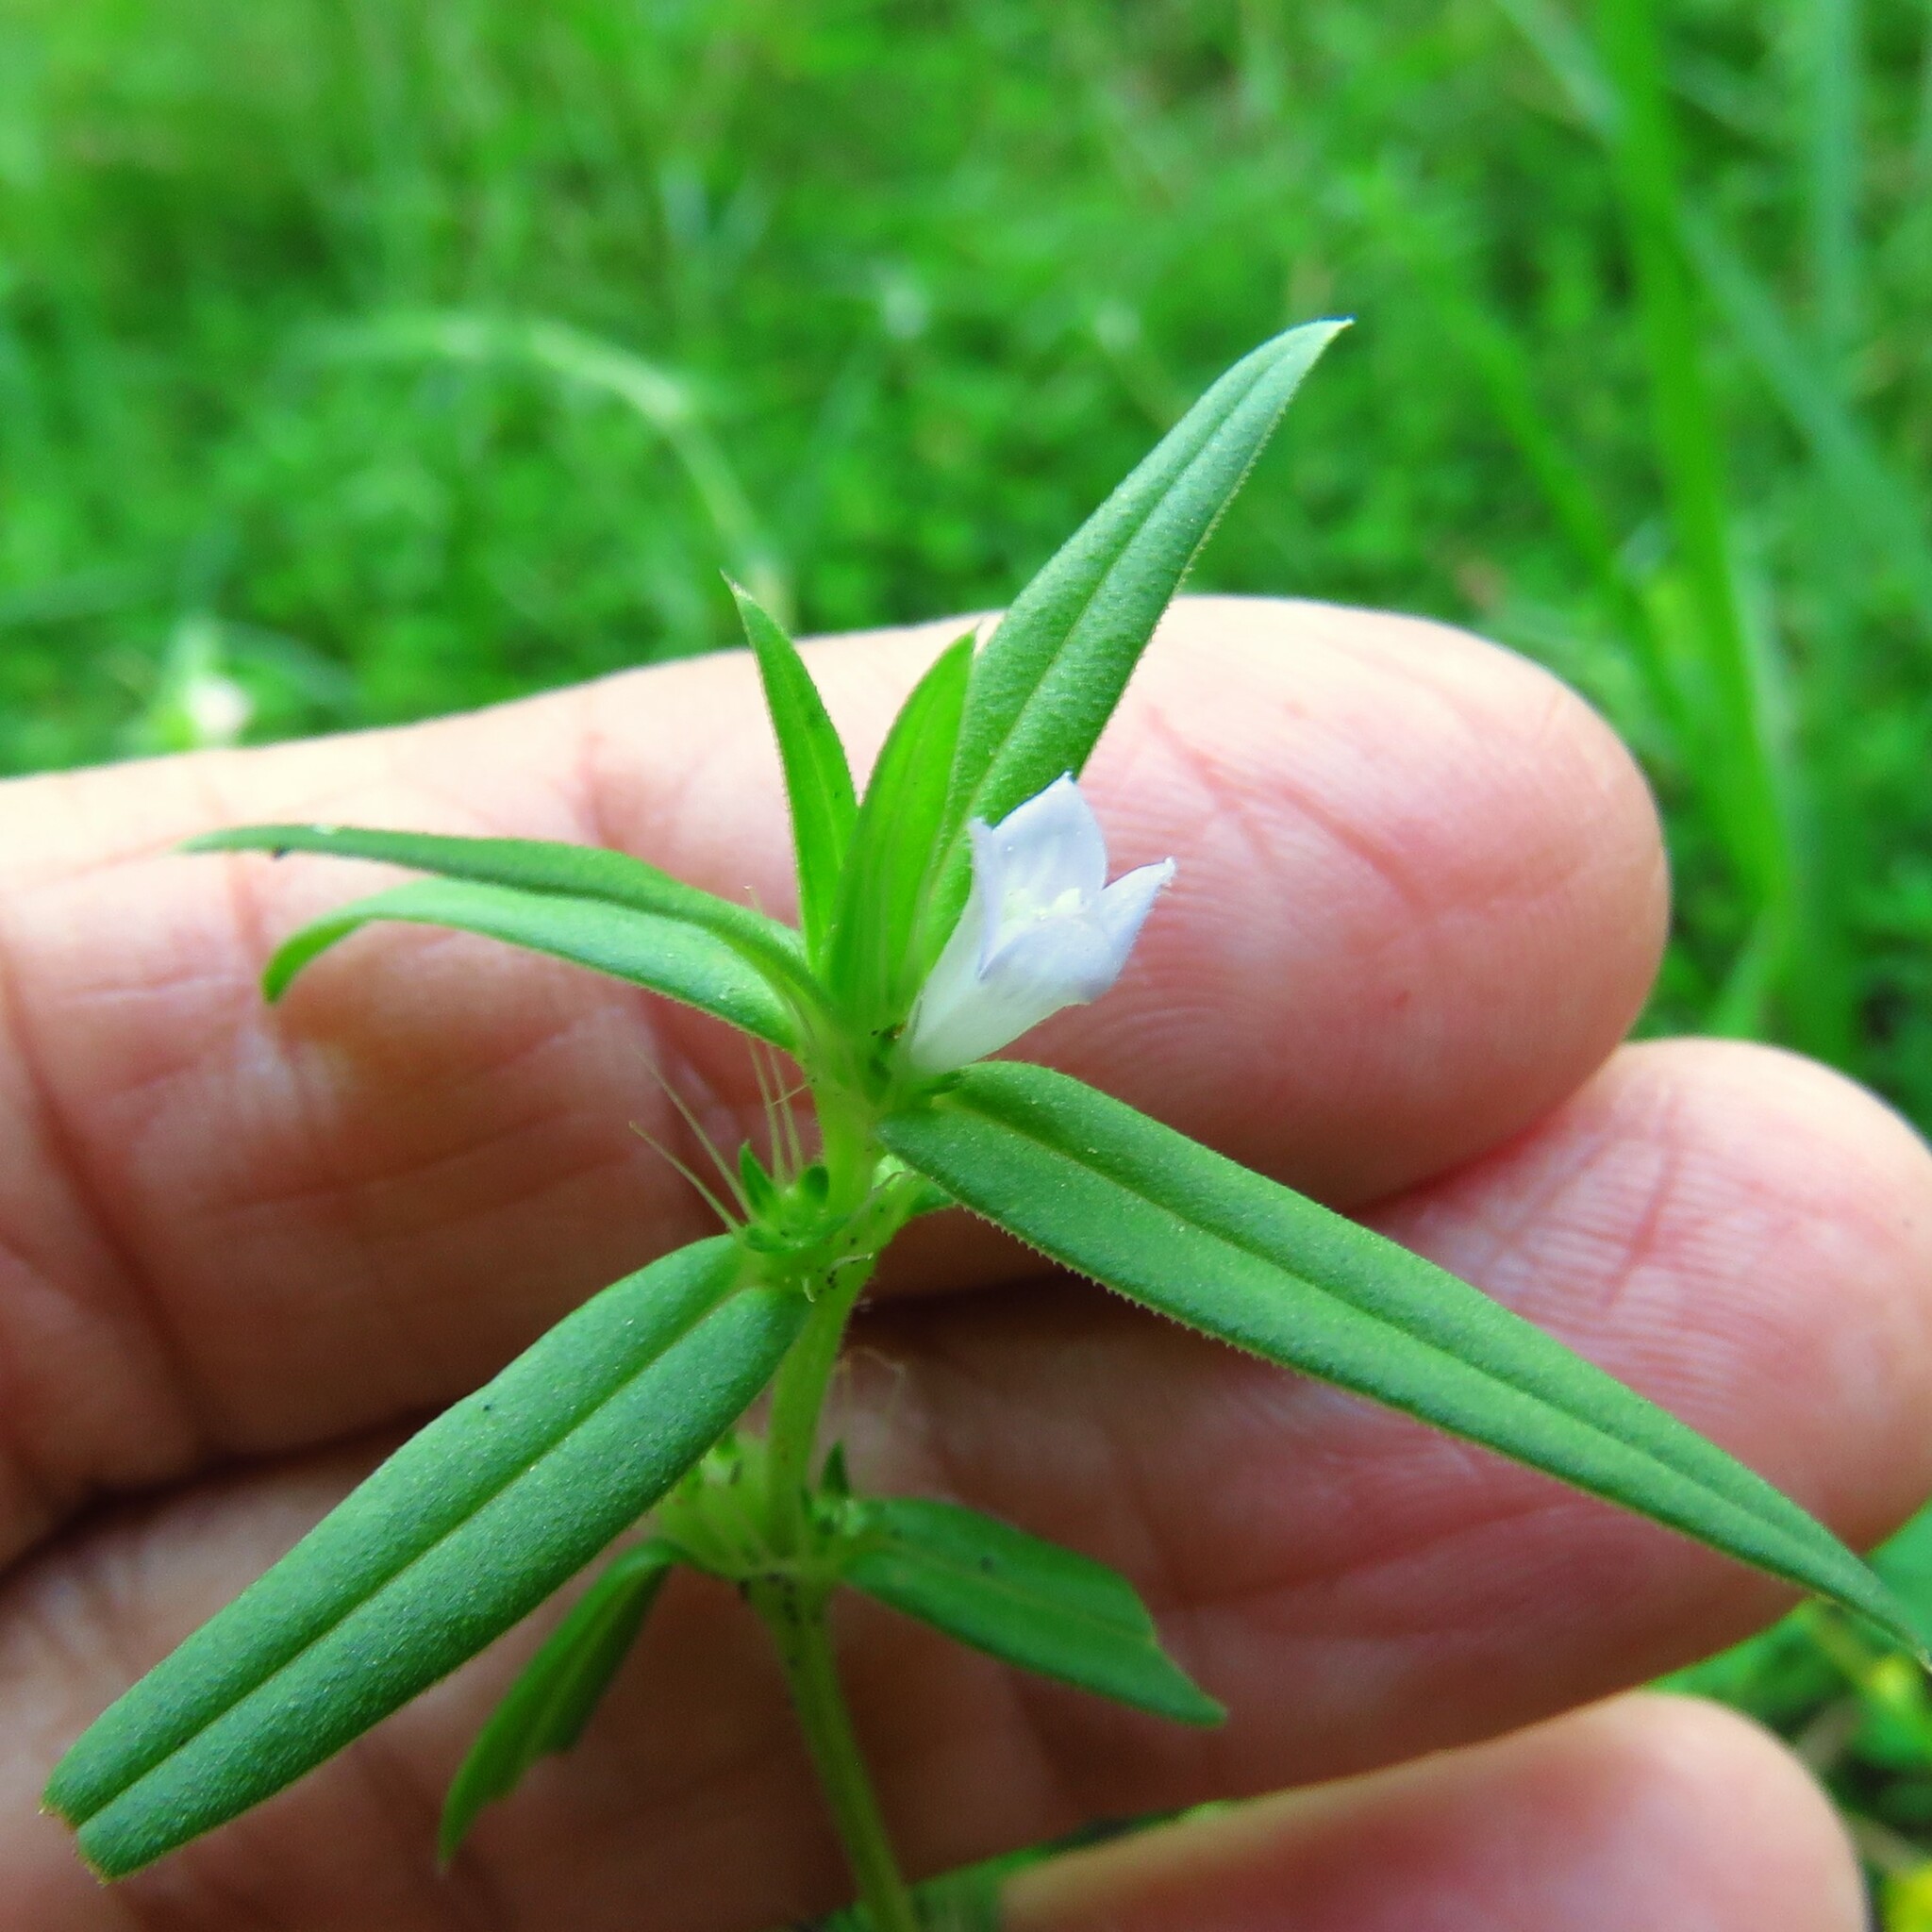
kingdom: Plantae
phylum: Tracheophyta
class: Magnoliopsida
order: Gentianales
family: Rubiaceae
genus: Hexasepalum
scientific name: Hexasepalum teres
